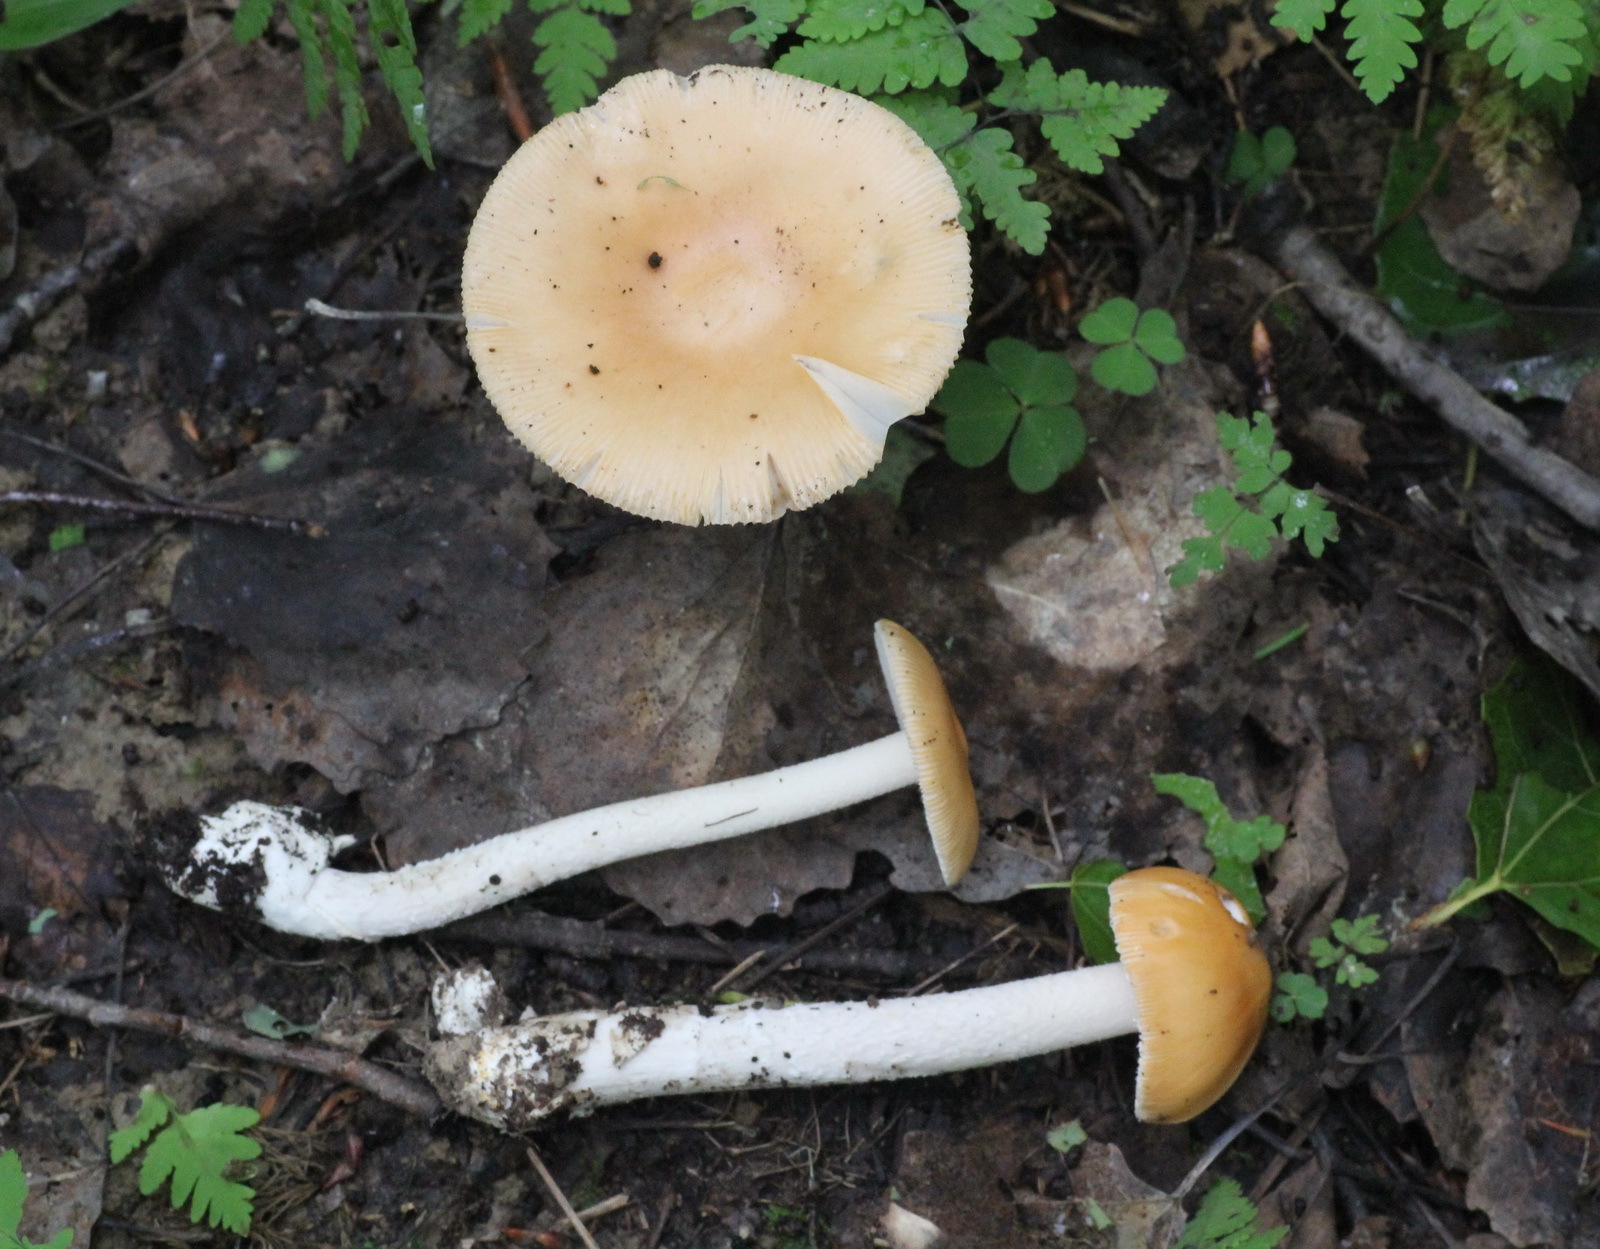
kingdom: Fungi
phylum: Basidiomycota
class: Agaricomycetes
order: Agaricales
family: Amanitaceae
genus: Amanita
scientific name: Amanita crocea
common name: Orange grisette
